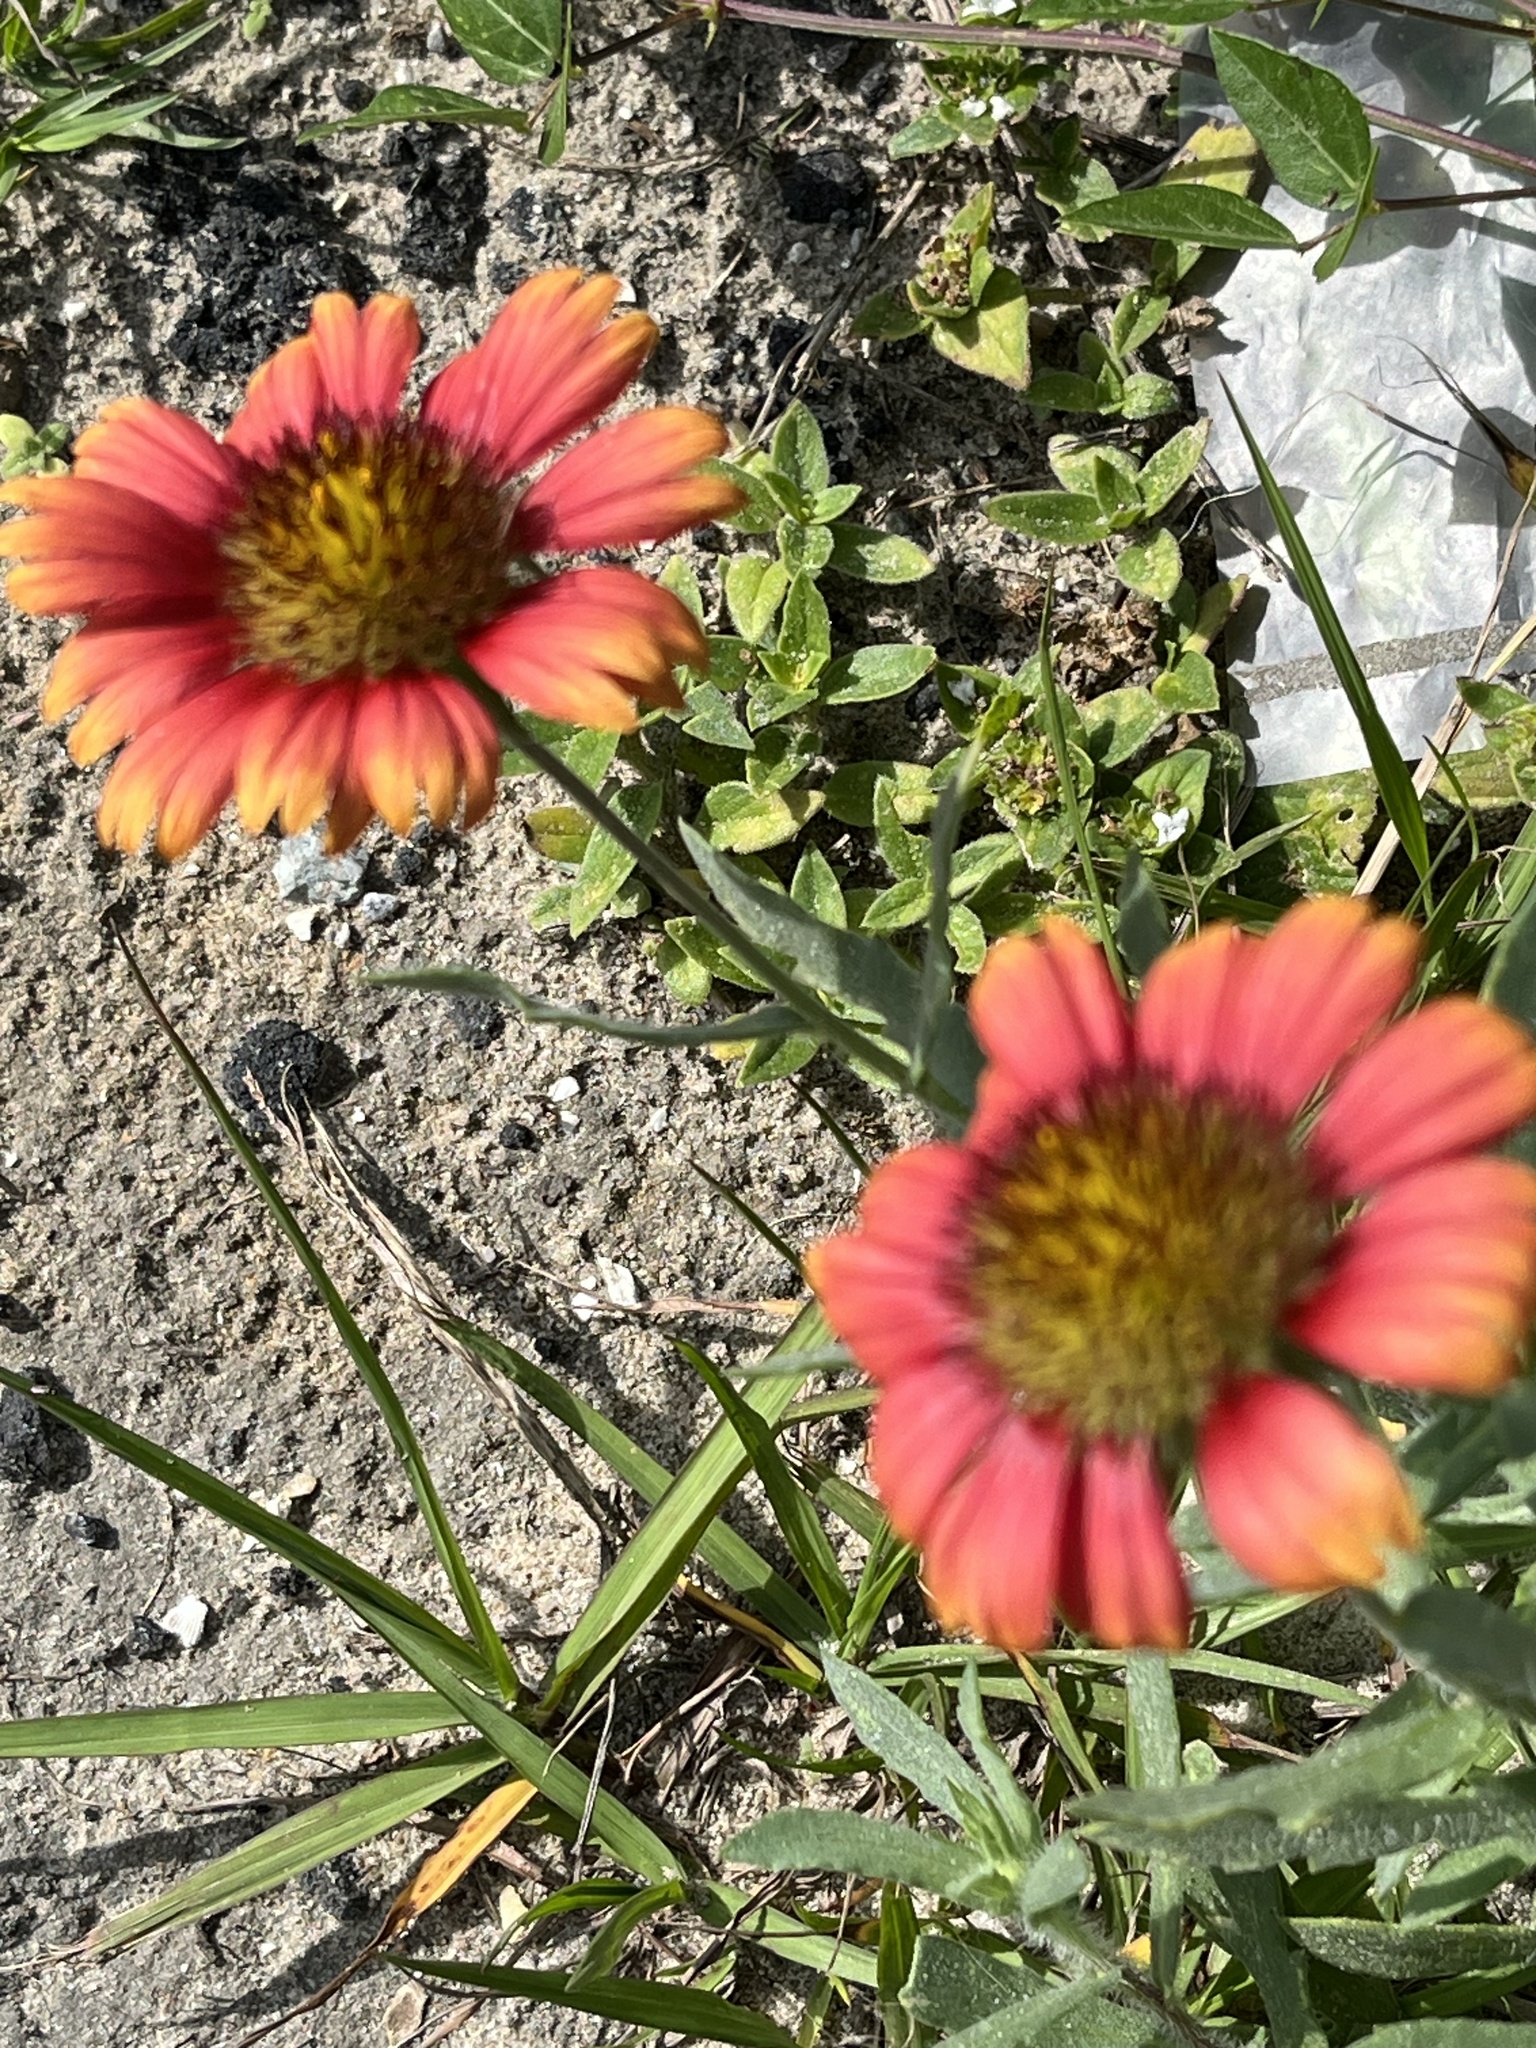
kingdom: Plantae
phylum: Tracheophyta
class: Magnoliopsida
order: Asterales
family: Asteraceae
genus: Gaillardia
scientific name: Gaillardia pulchella
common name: Firewheel
